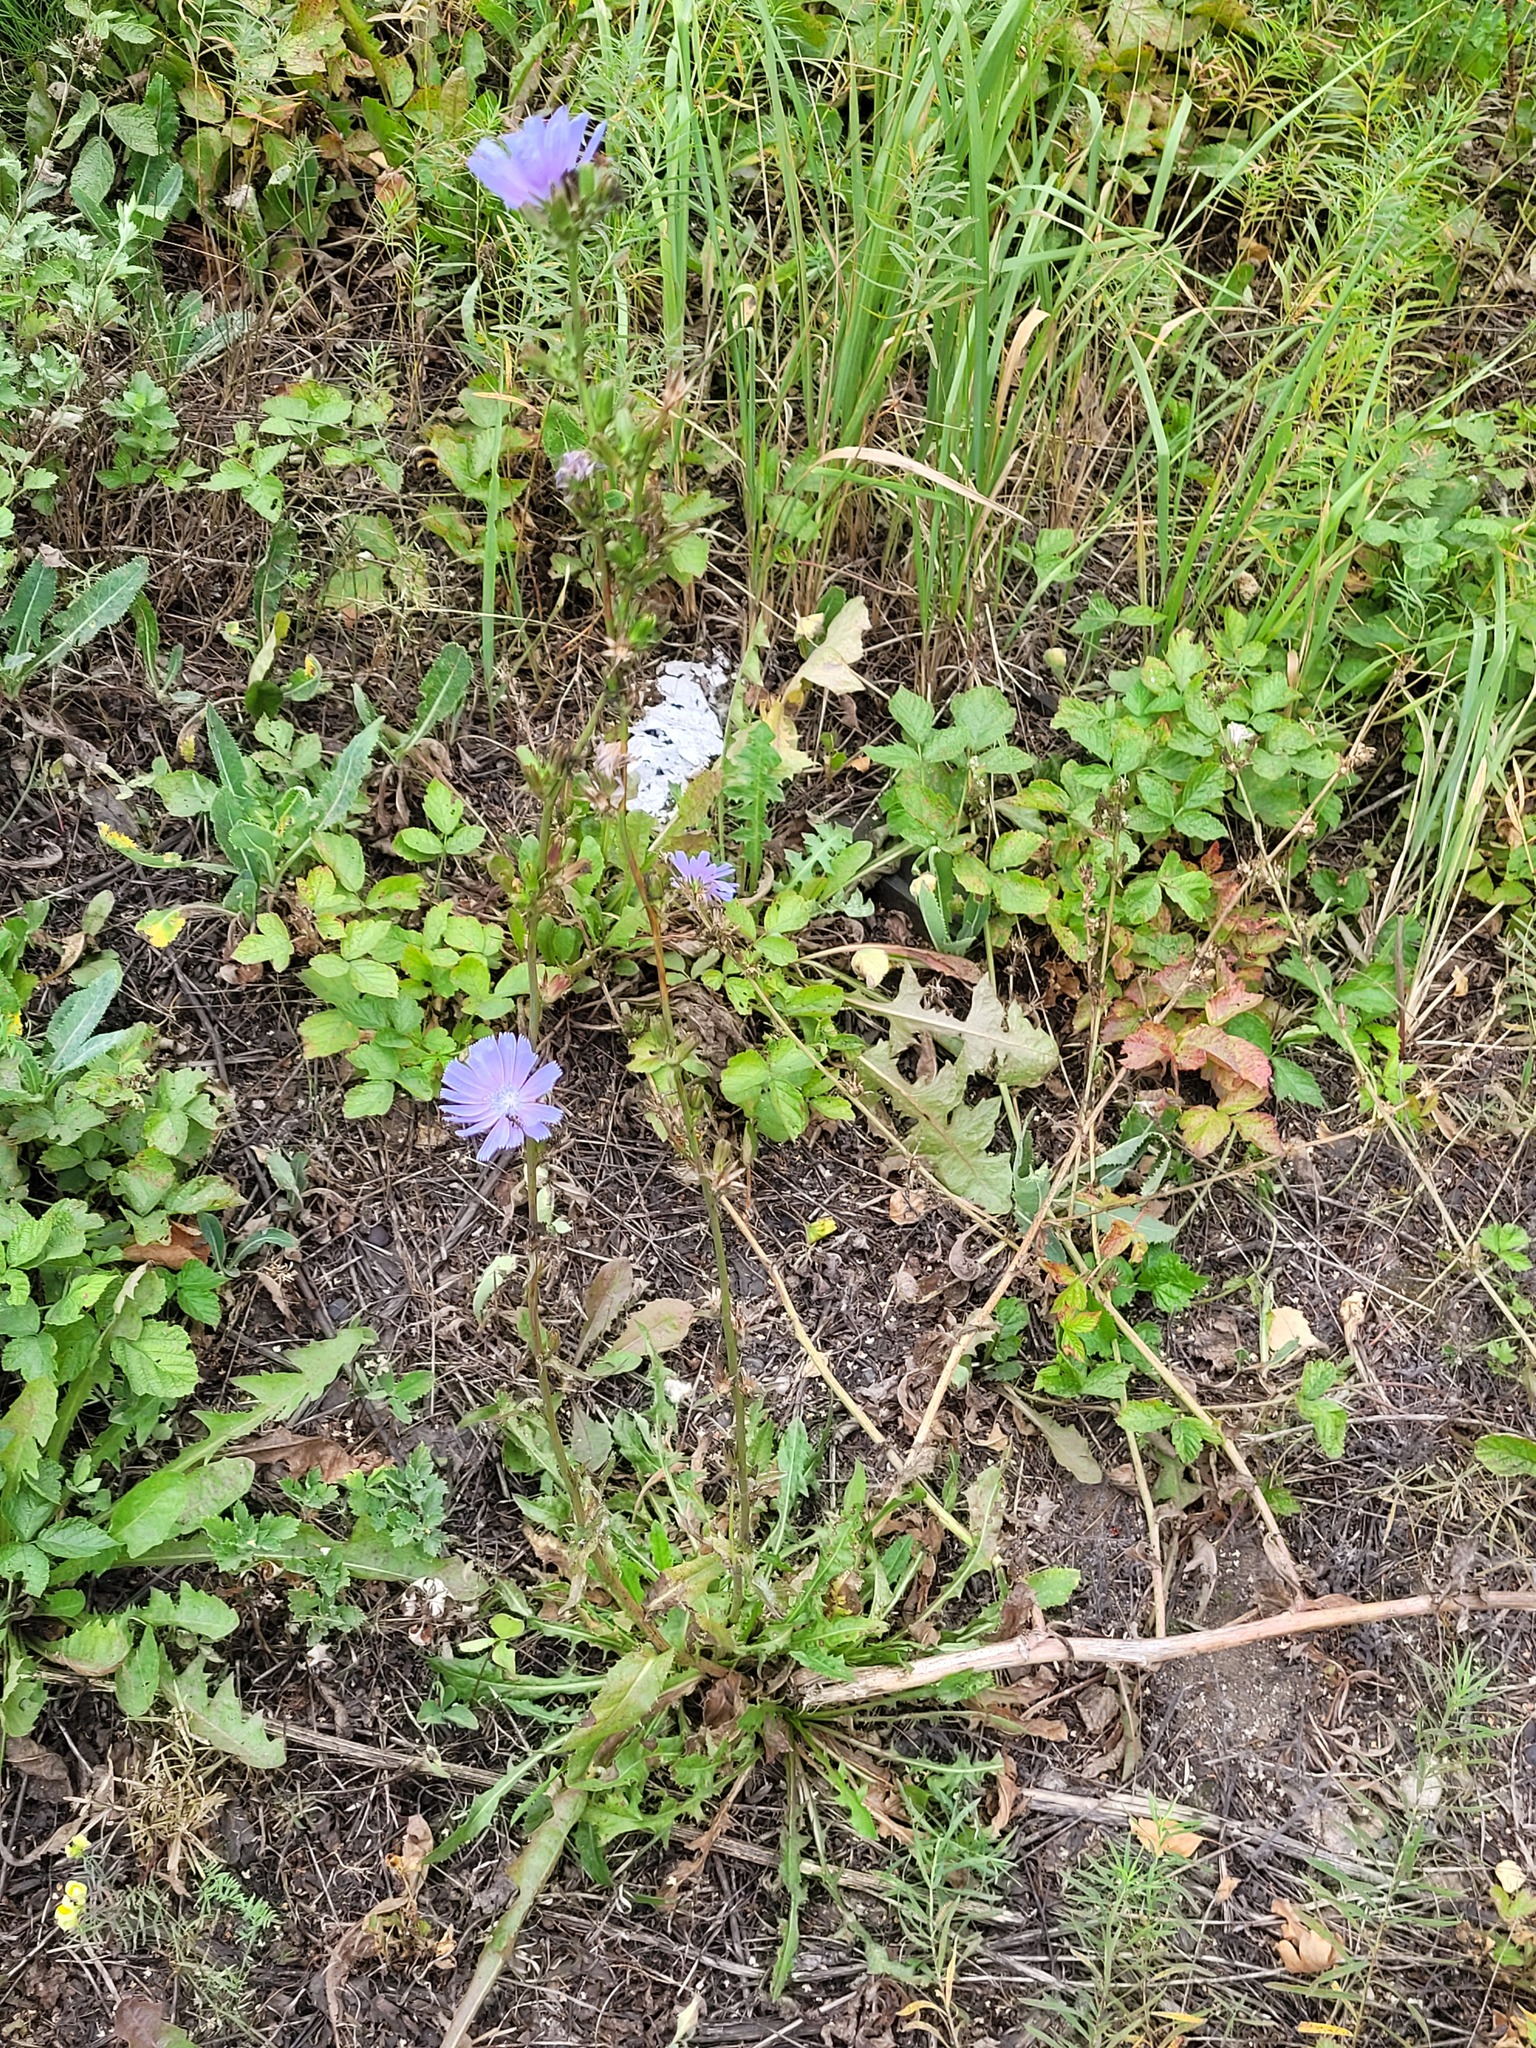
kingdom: Plantae
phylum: Tracheophyta
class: Magnoliopsida
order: Asterales
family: Asteraceae
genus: Cichorium
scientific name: Cichorium intybus
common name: Chicory
